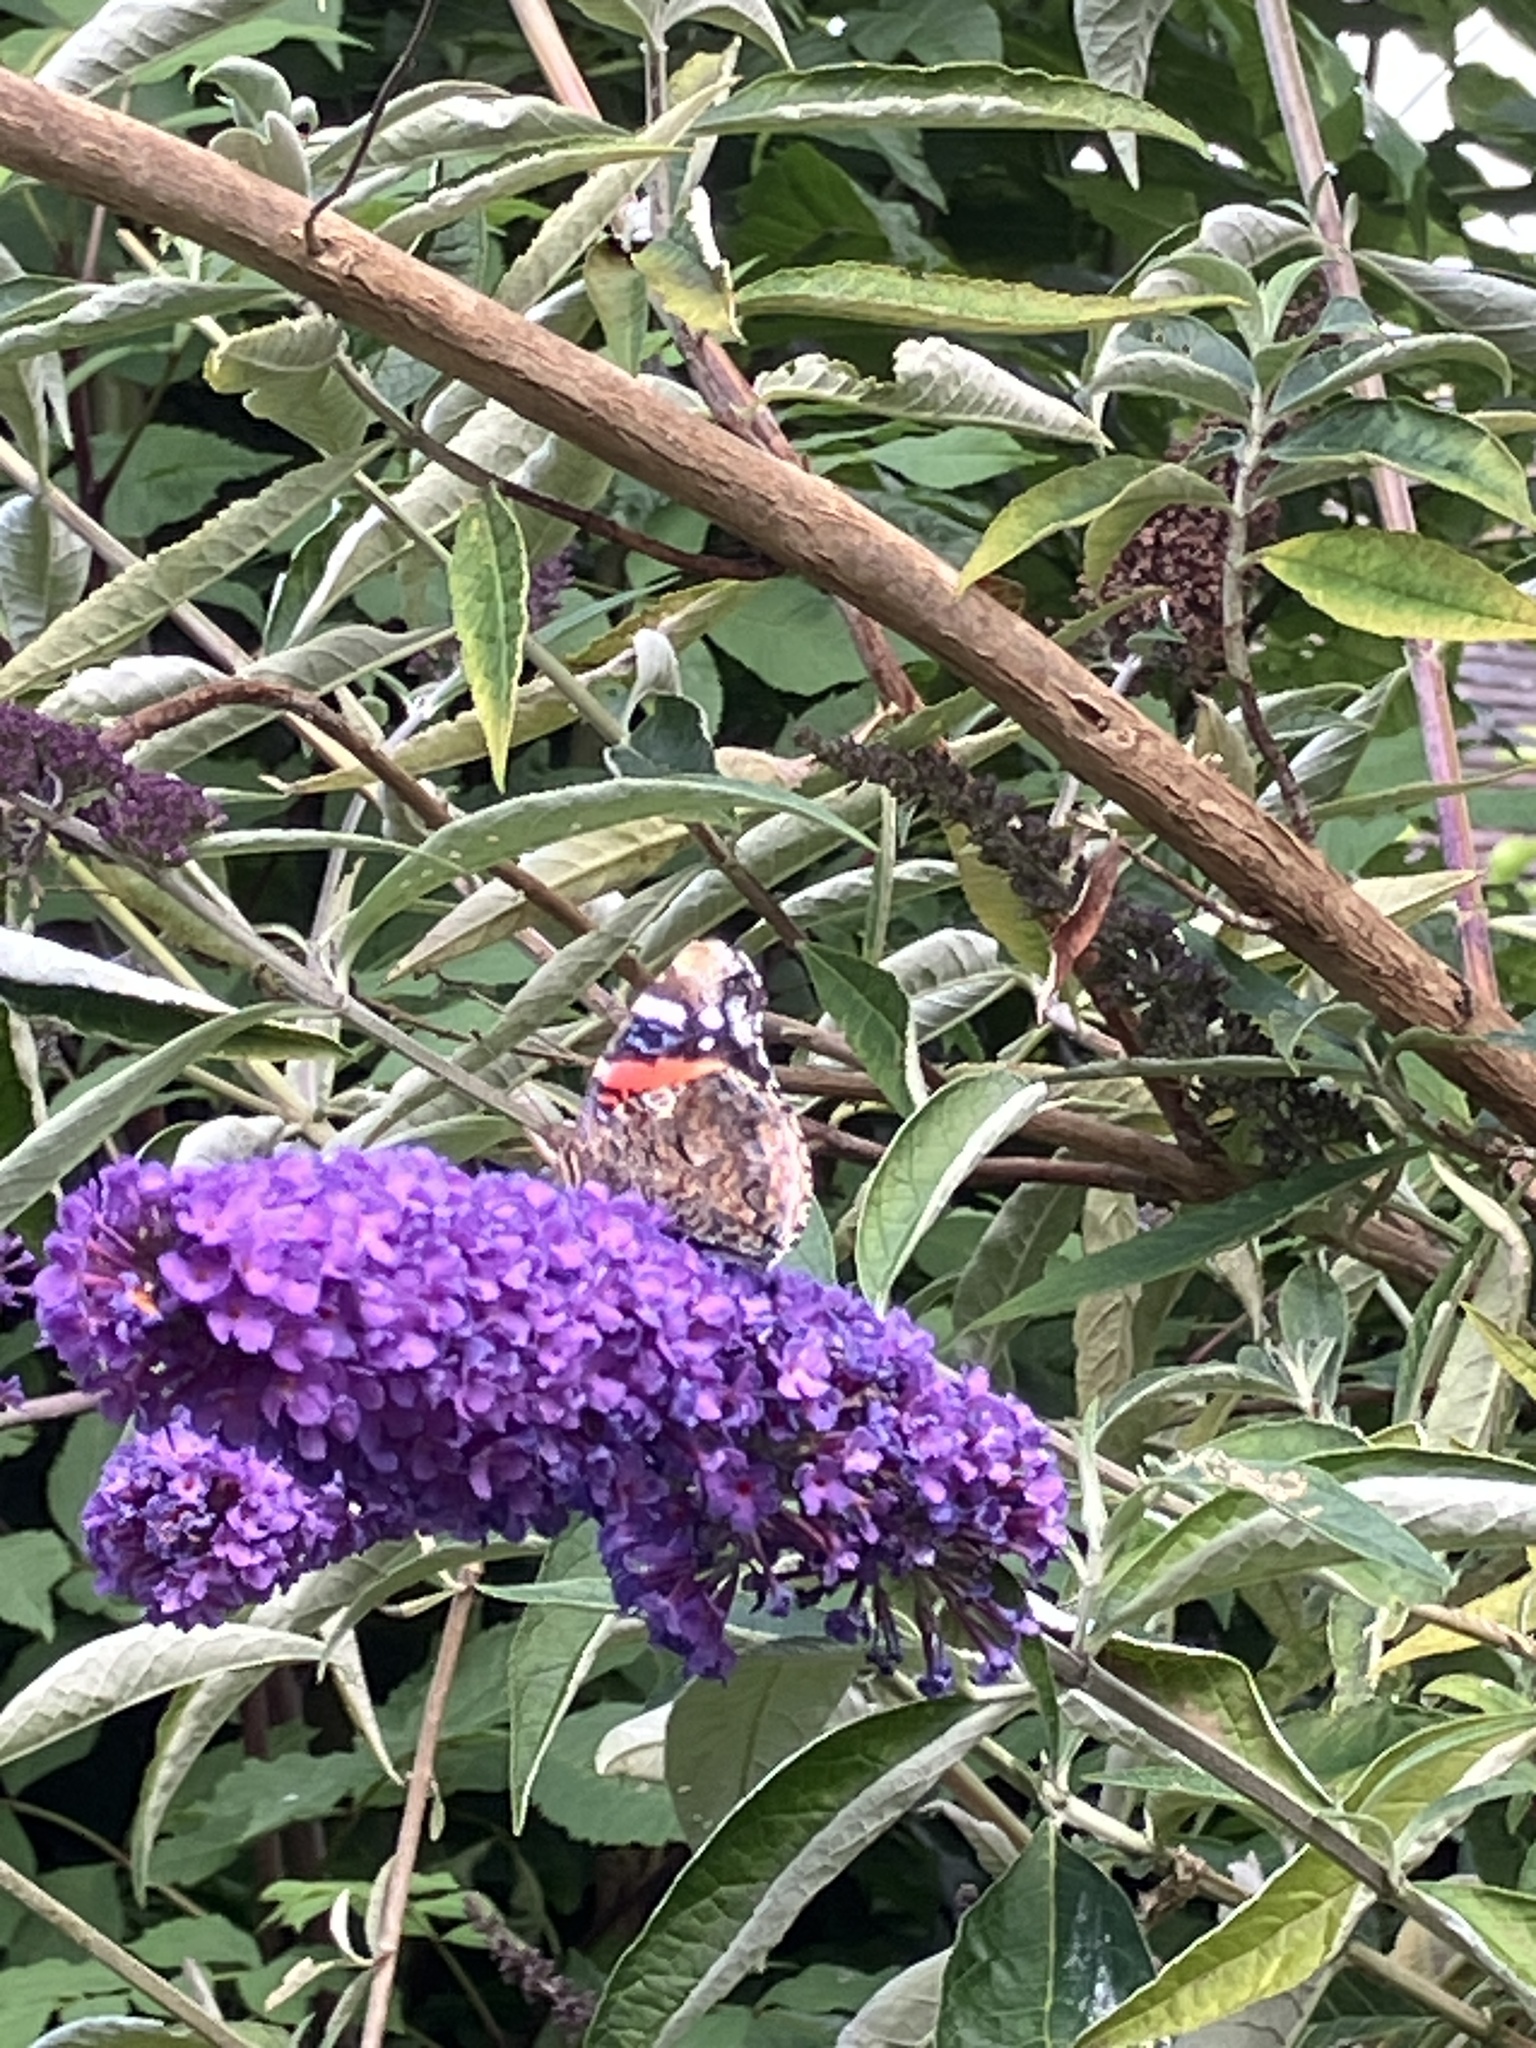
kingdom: Animalia
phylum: Arthropoda
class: Insecta
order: Lepidoptera
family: Nymphalidae
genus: Vanessa
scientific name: Vanessa atalanta
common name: Red admiral
